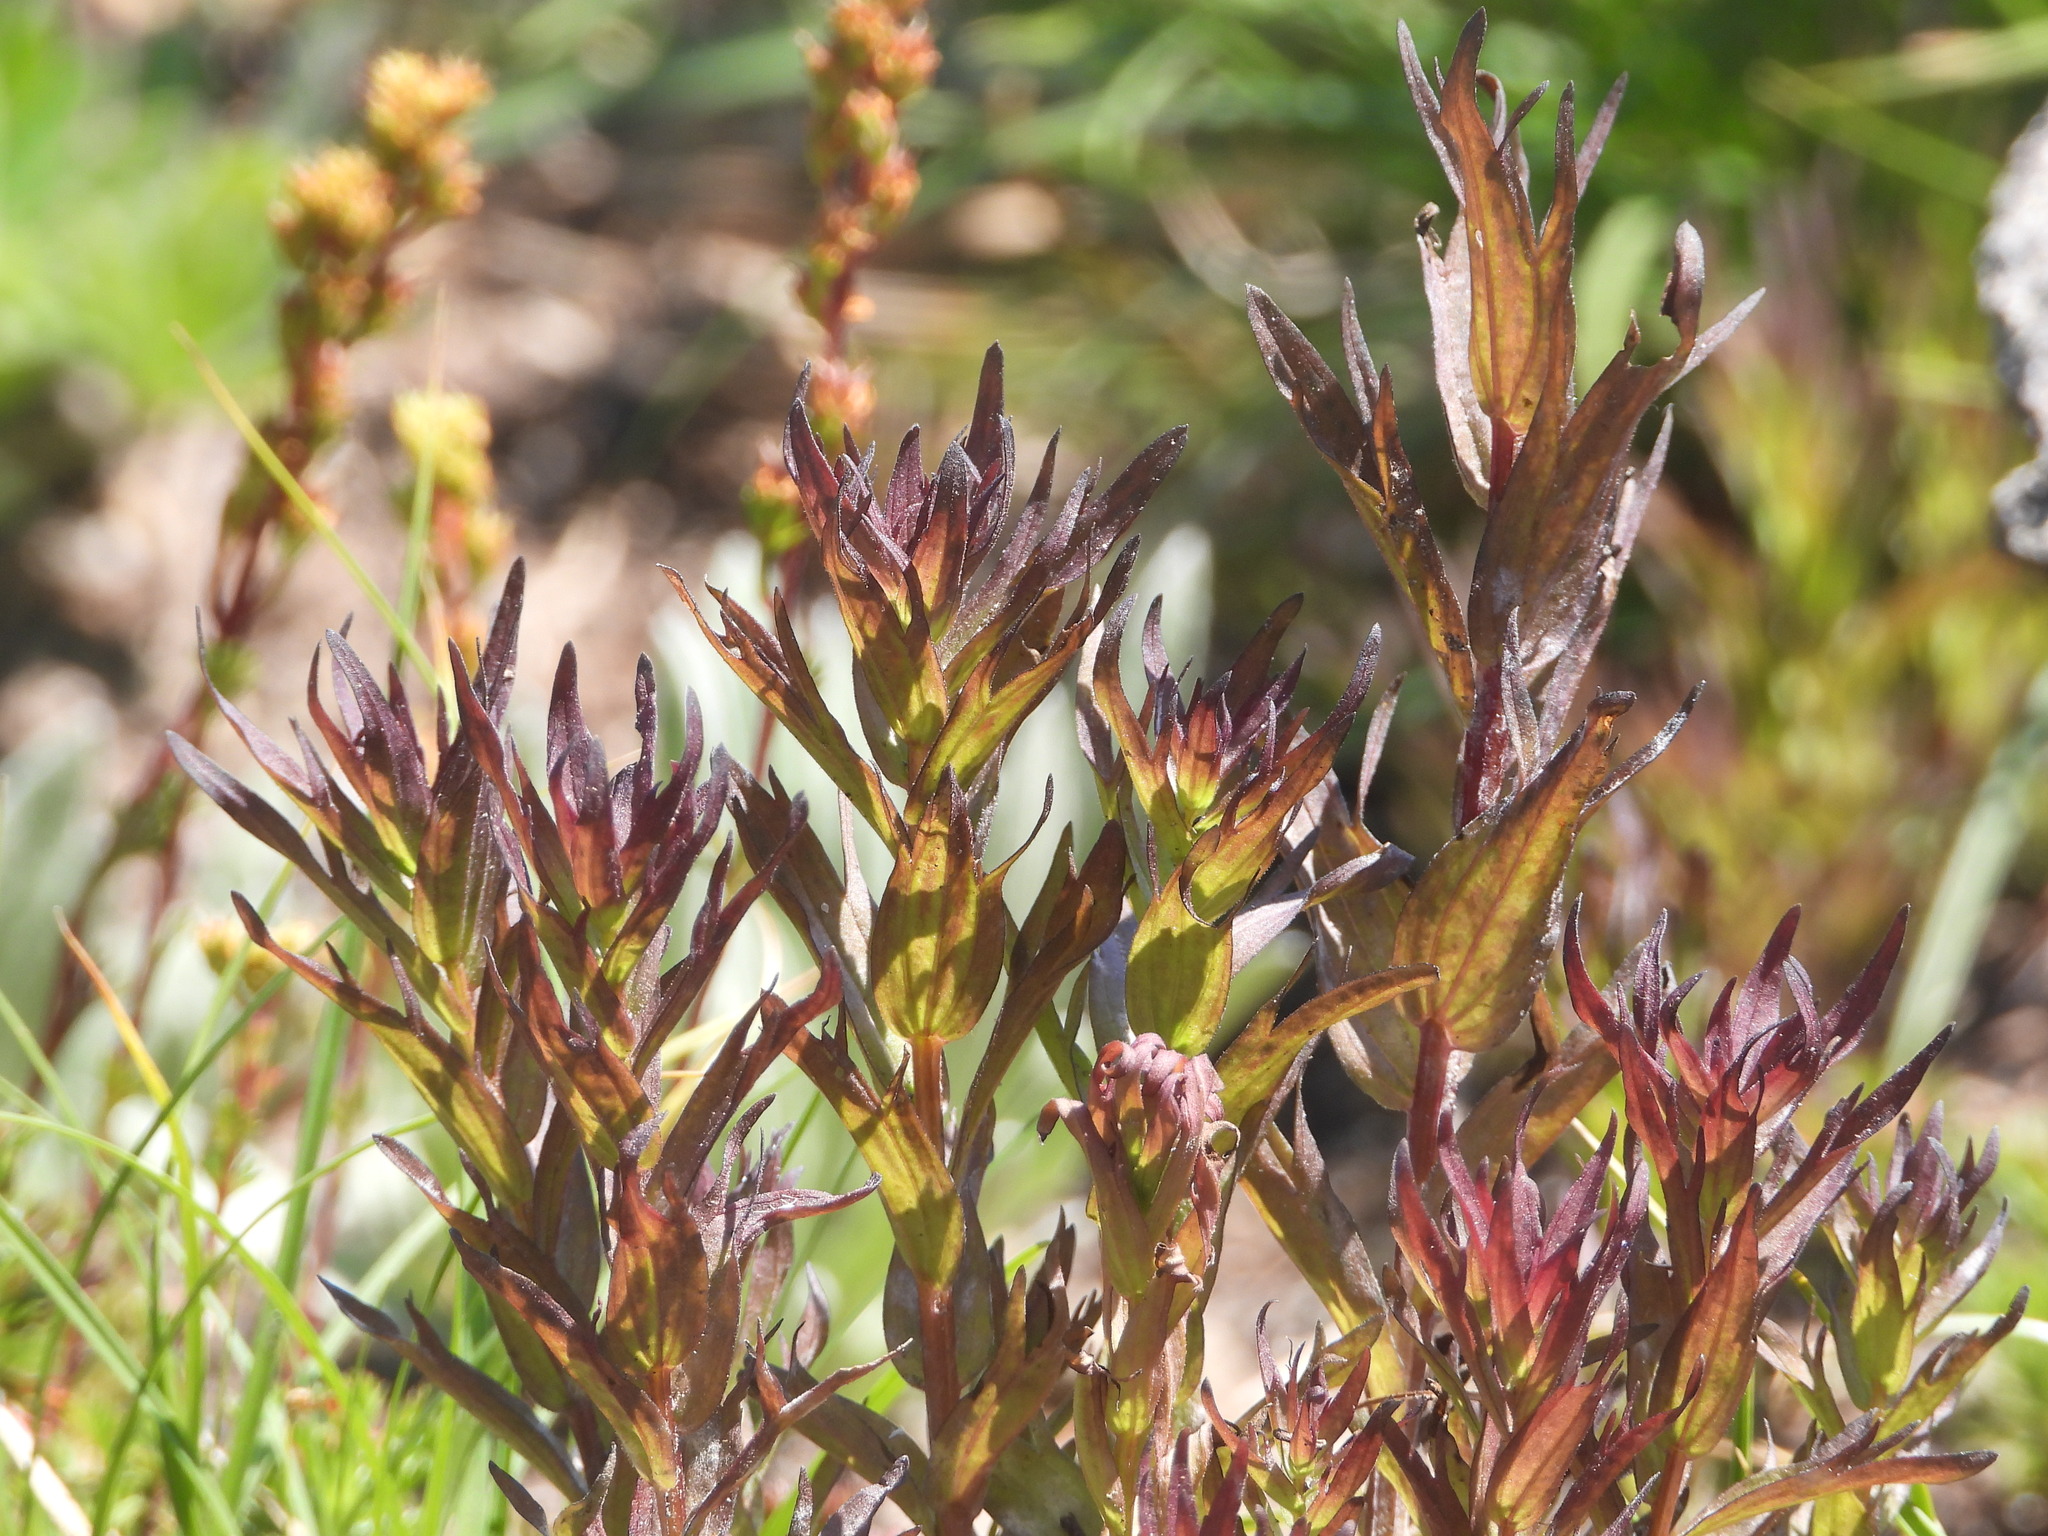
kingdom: Plantae
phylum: Tracheophyta
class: Magnoliopsida
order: Lamiales
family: Orobanchaceae
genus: Castilleja
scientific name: Castilleja parviflora
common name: Mountain paintbrush
